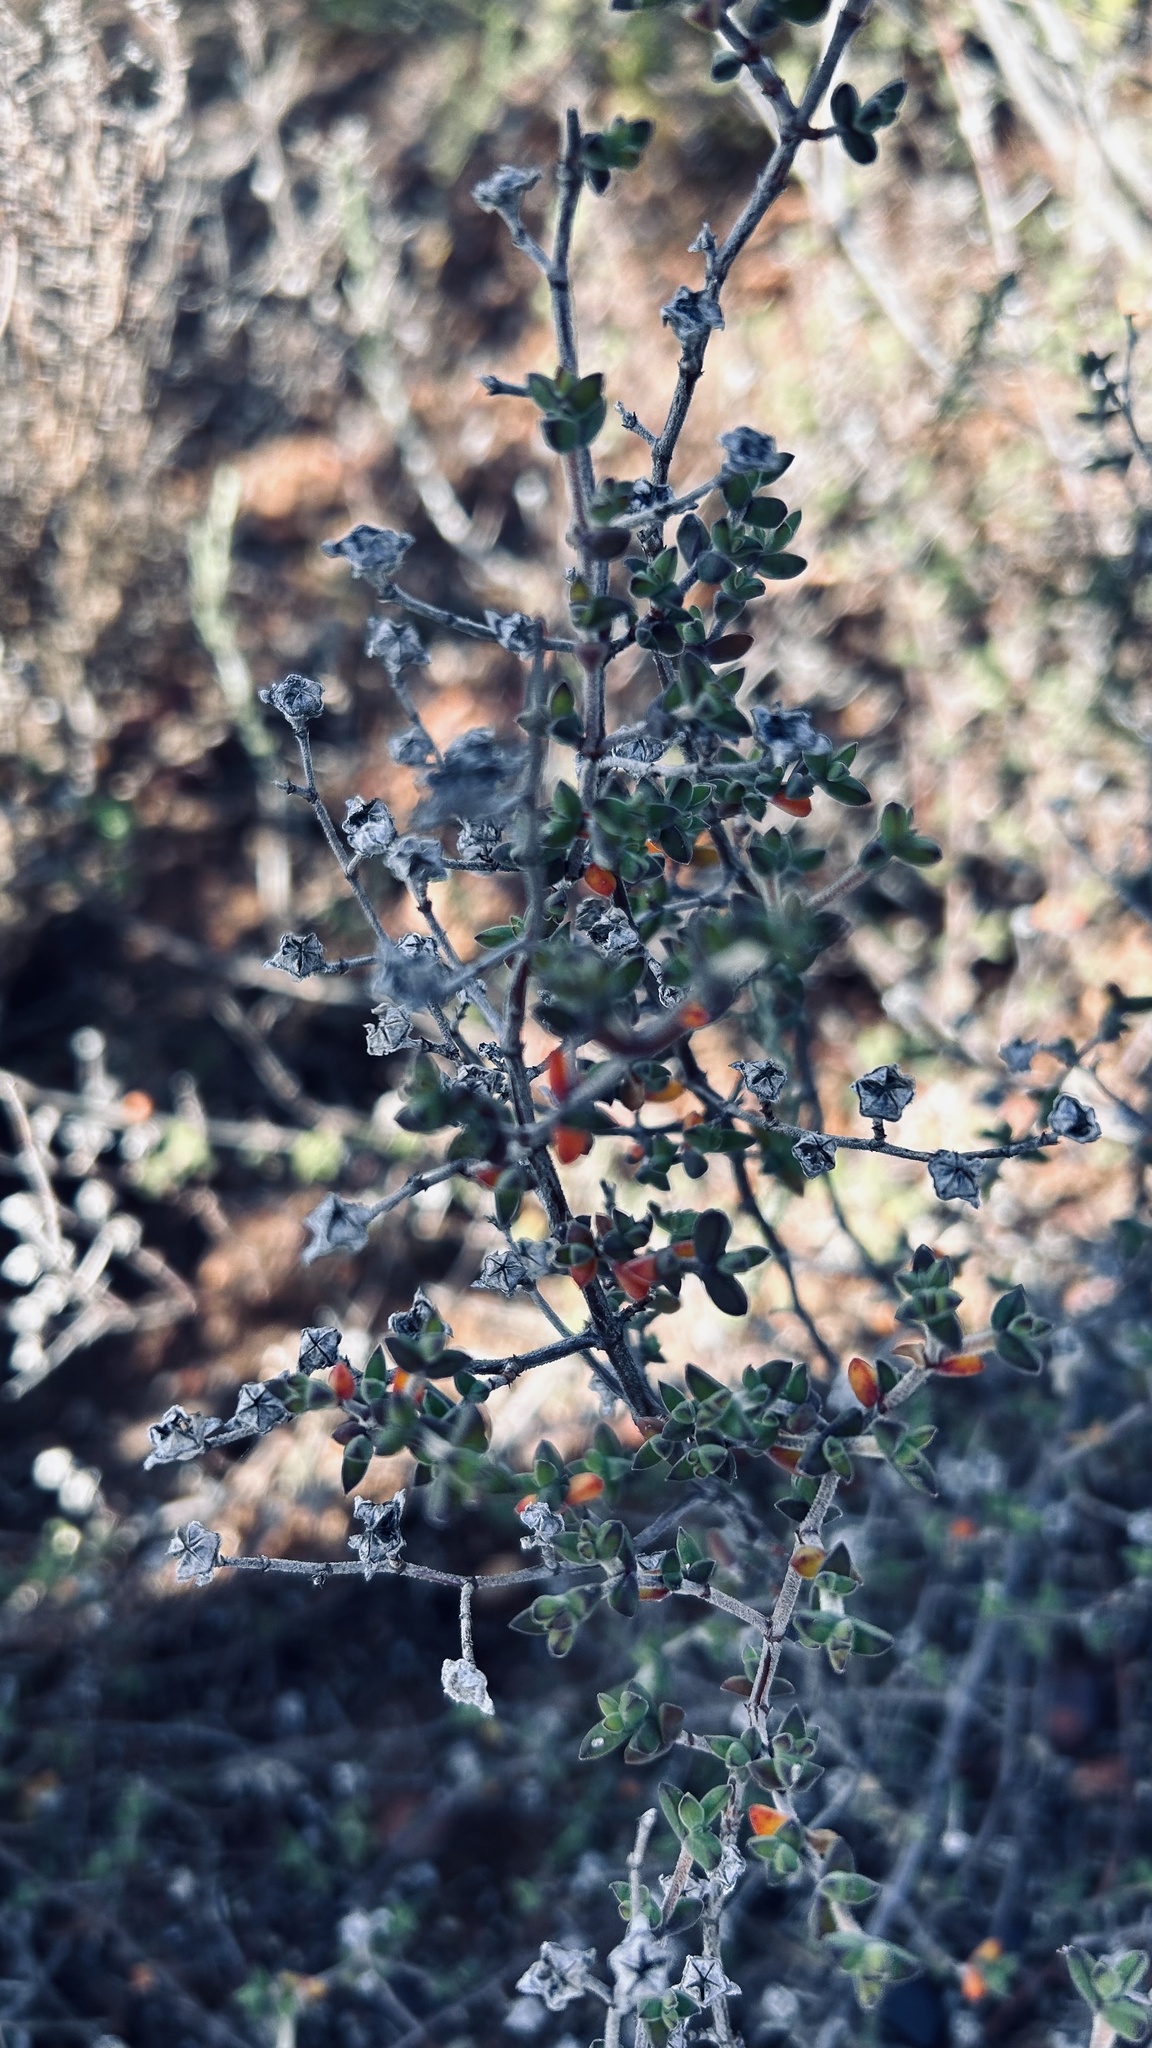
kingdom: Plantae
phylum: Tracheophyta
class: Magnoliopsida
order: Caryophyllales
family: Aizoaceae
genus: Drosanthemum
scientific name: Drosanthemum parvifolium
